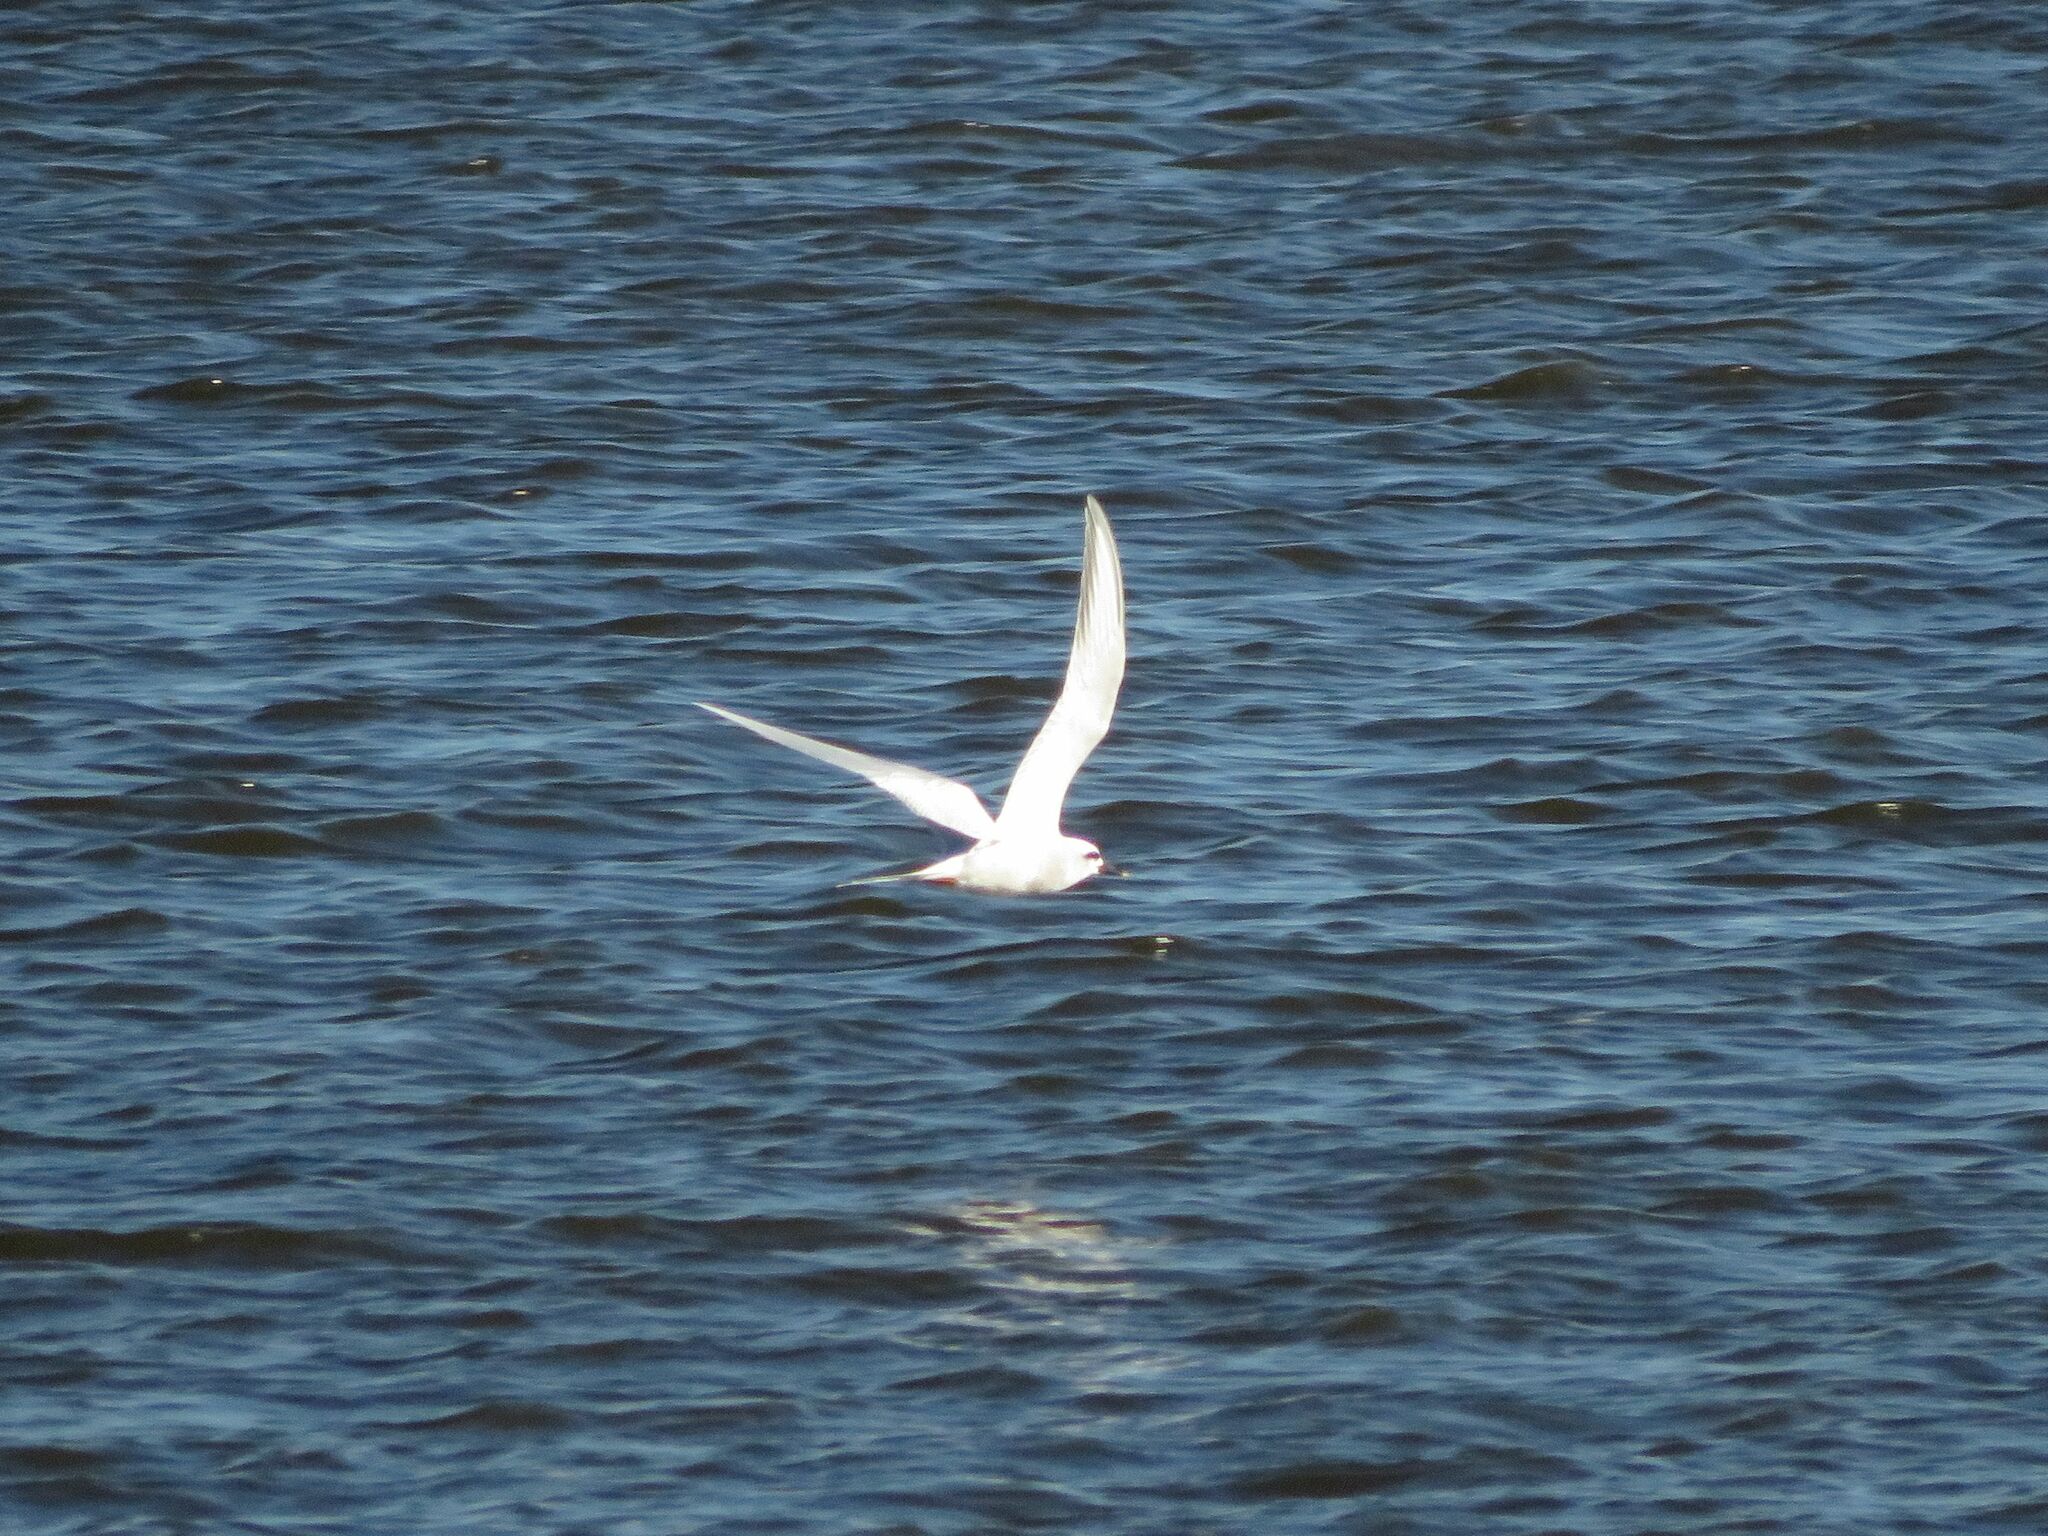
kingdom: Animalia
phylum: Chordata
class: Aves
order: Charadriiformes
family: Laridae
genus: Sterna
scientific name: Sterna trudeaui
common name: Snowy-crowned tern
